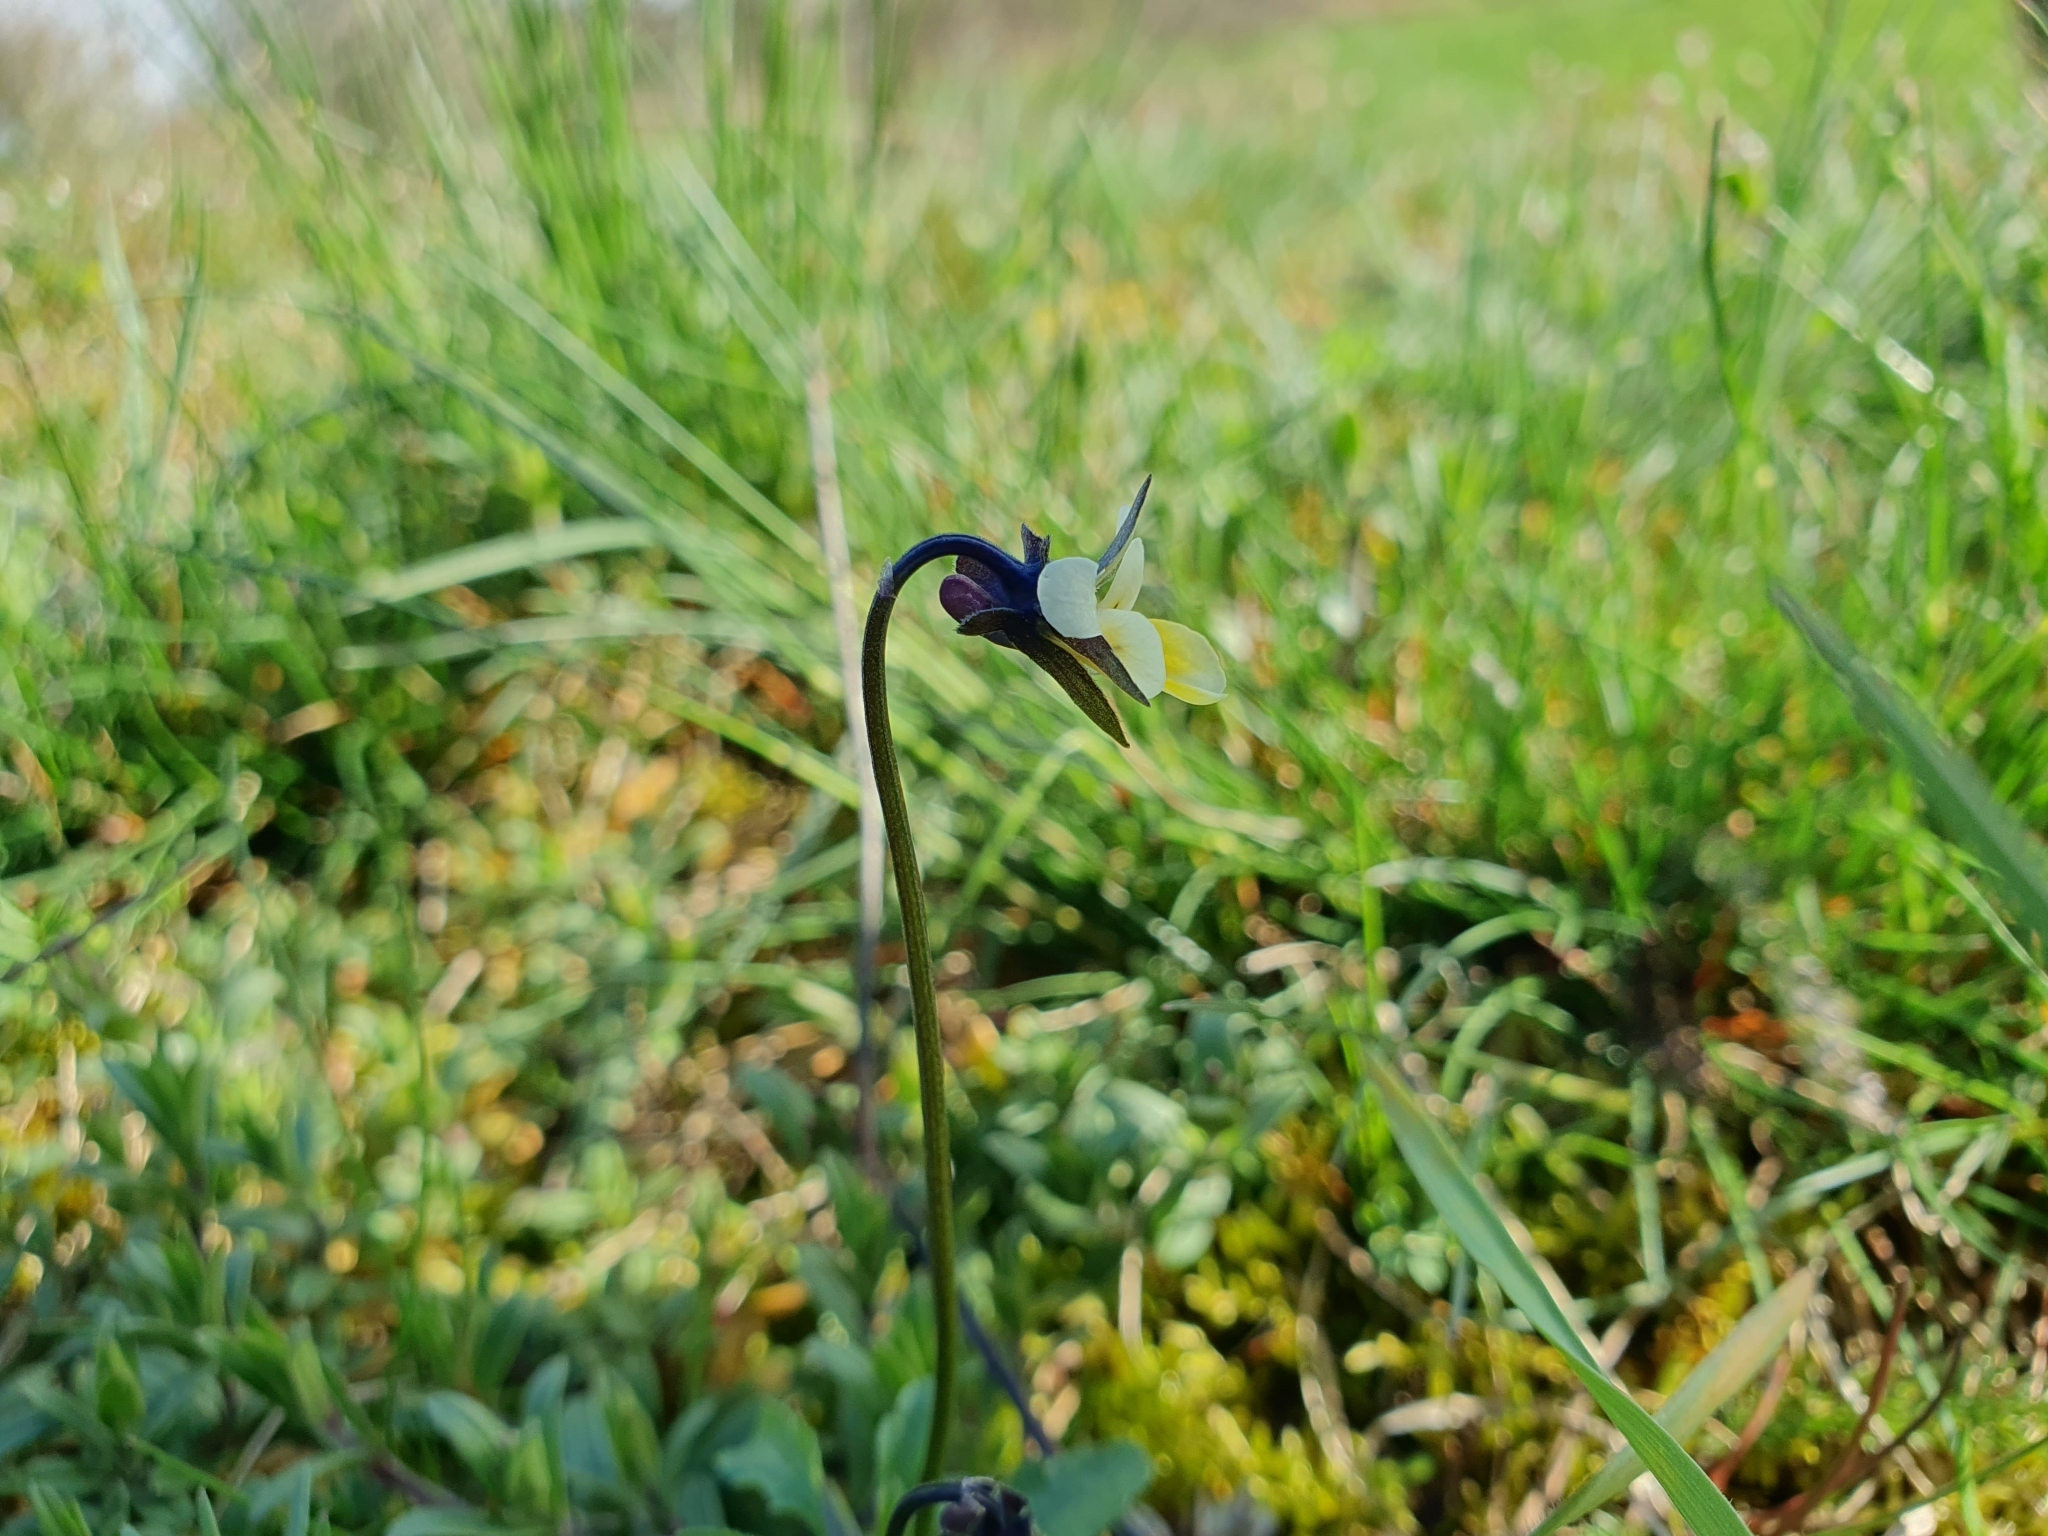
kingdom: Plantae
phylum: Tracheophyta
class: Magnoliopsida
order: Malpighiales
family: Violaceae
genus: Viola
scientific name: Viola arvensis
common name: Field pansy
